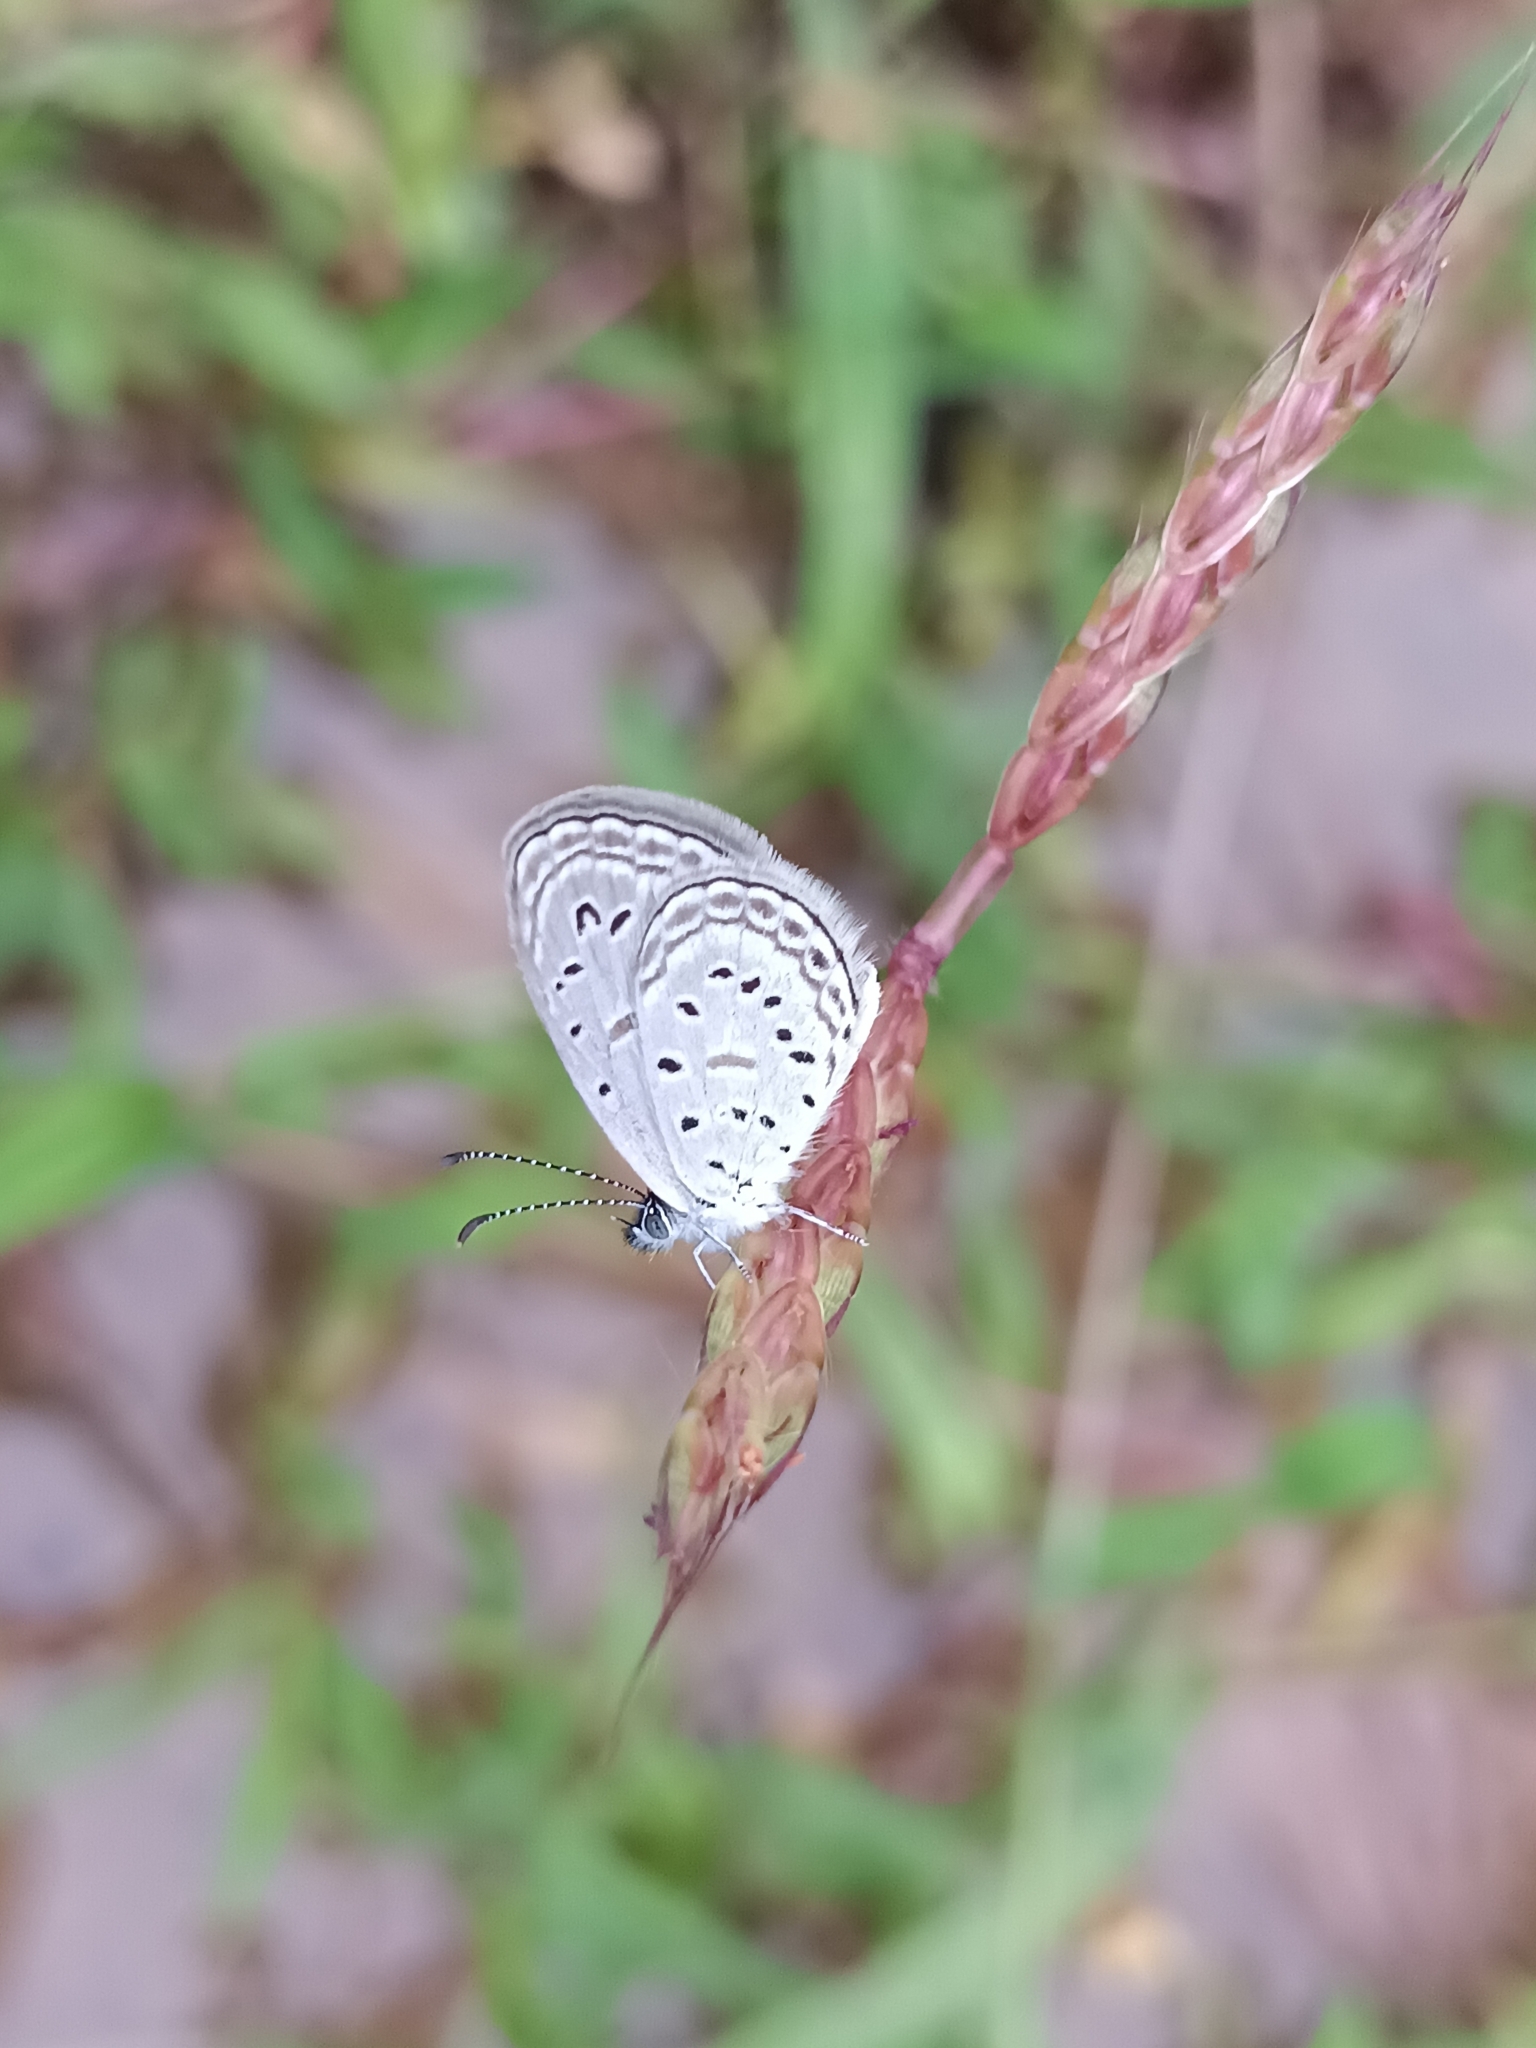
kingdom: Animalia
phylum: Arthropoda
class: Insecta
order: Lepidoptera
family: Lycaenidae
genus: Zizula
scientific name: Zizula hylax
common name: Gaika blue
